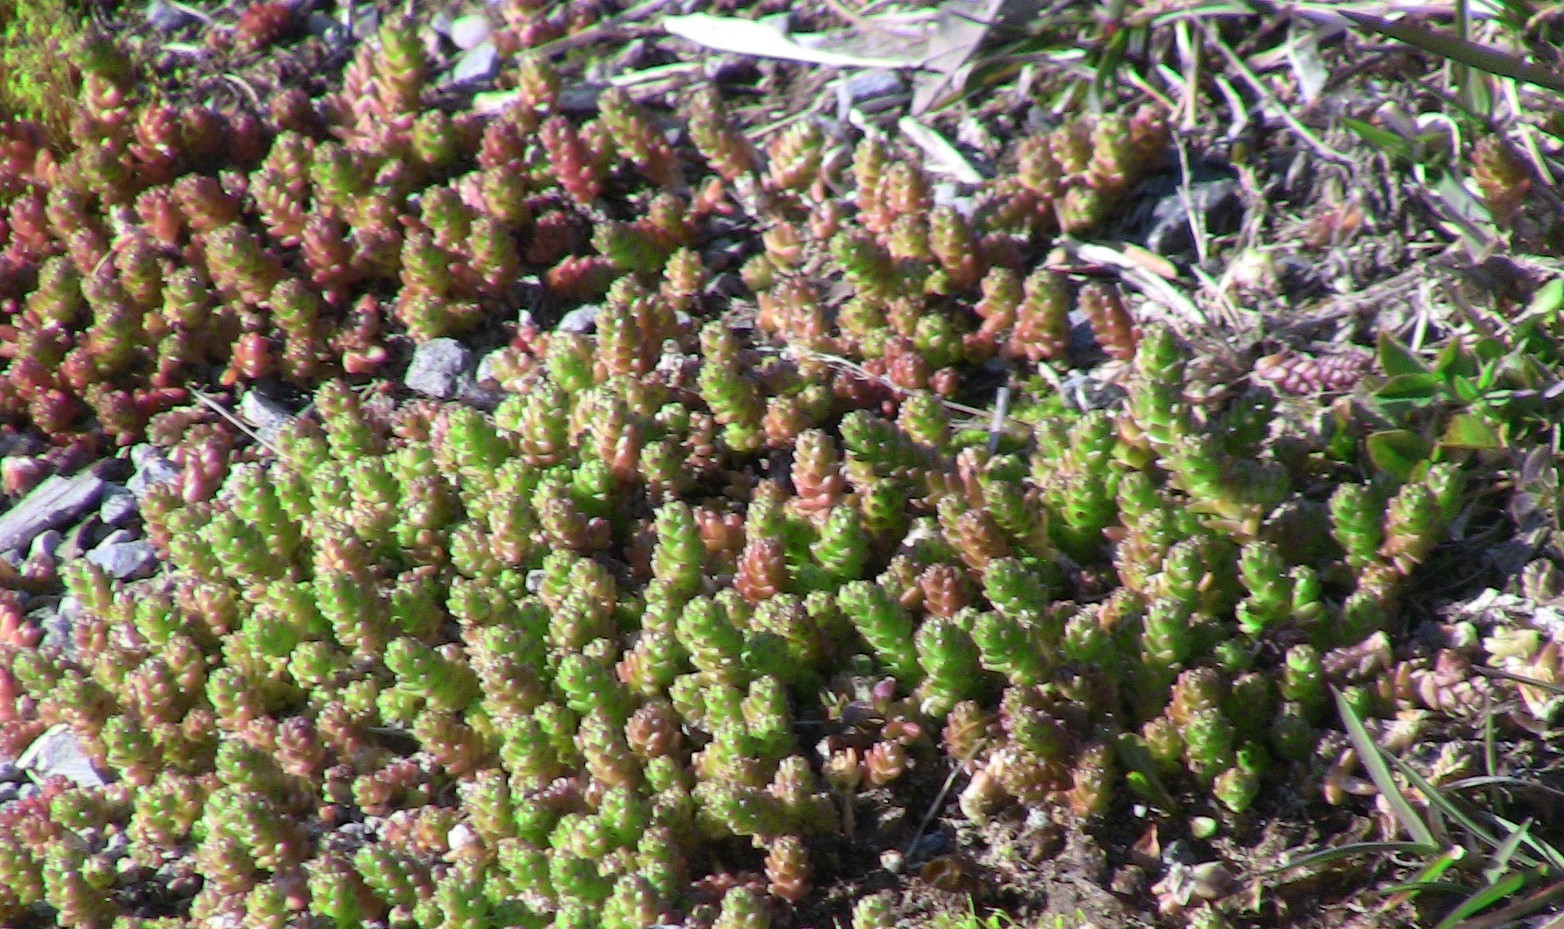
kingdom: Plantae
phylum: Tracheophyta
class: Magnoliopsida
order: Saxifragales
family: Crassulaceae
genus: Sedum
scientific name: Sedum acre
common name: Biting stonecrop
